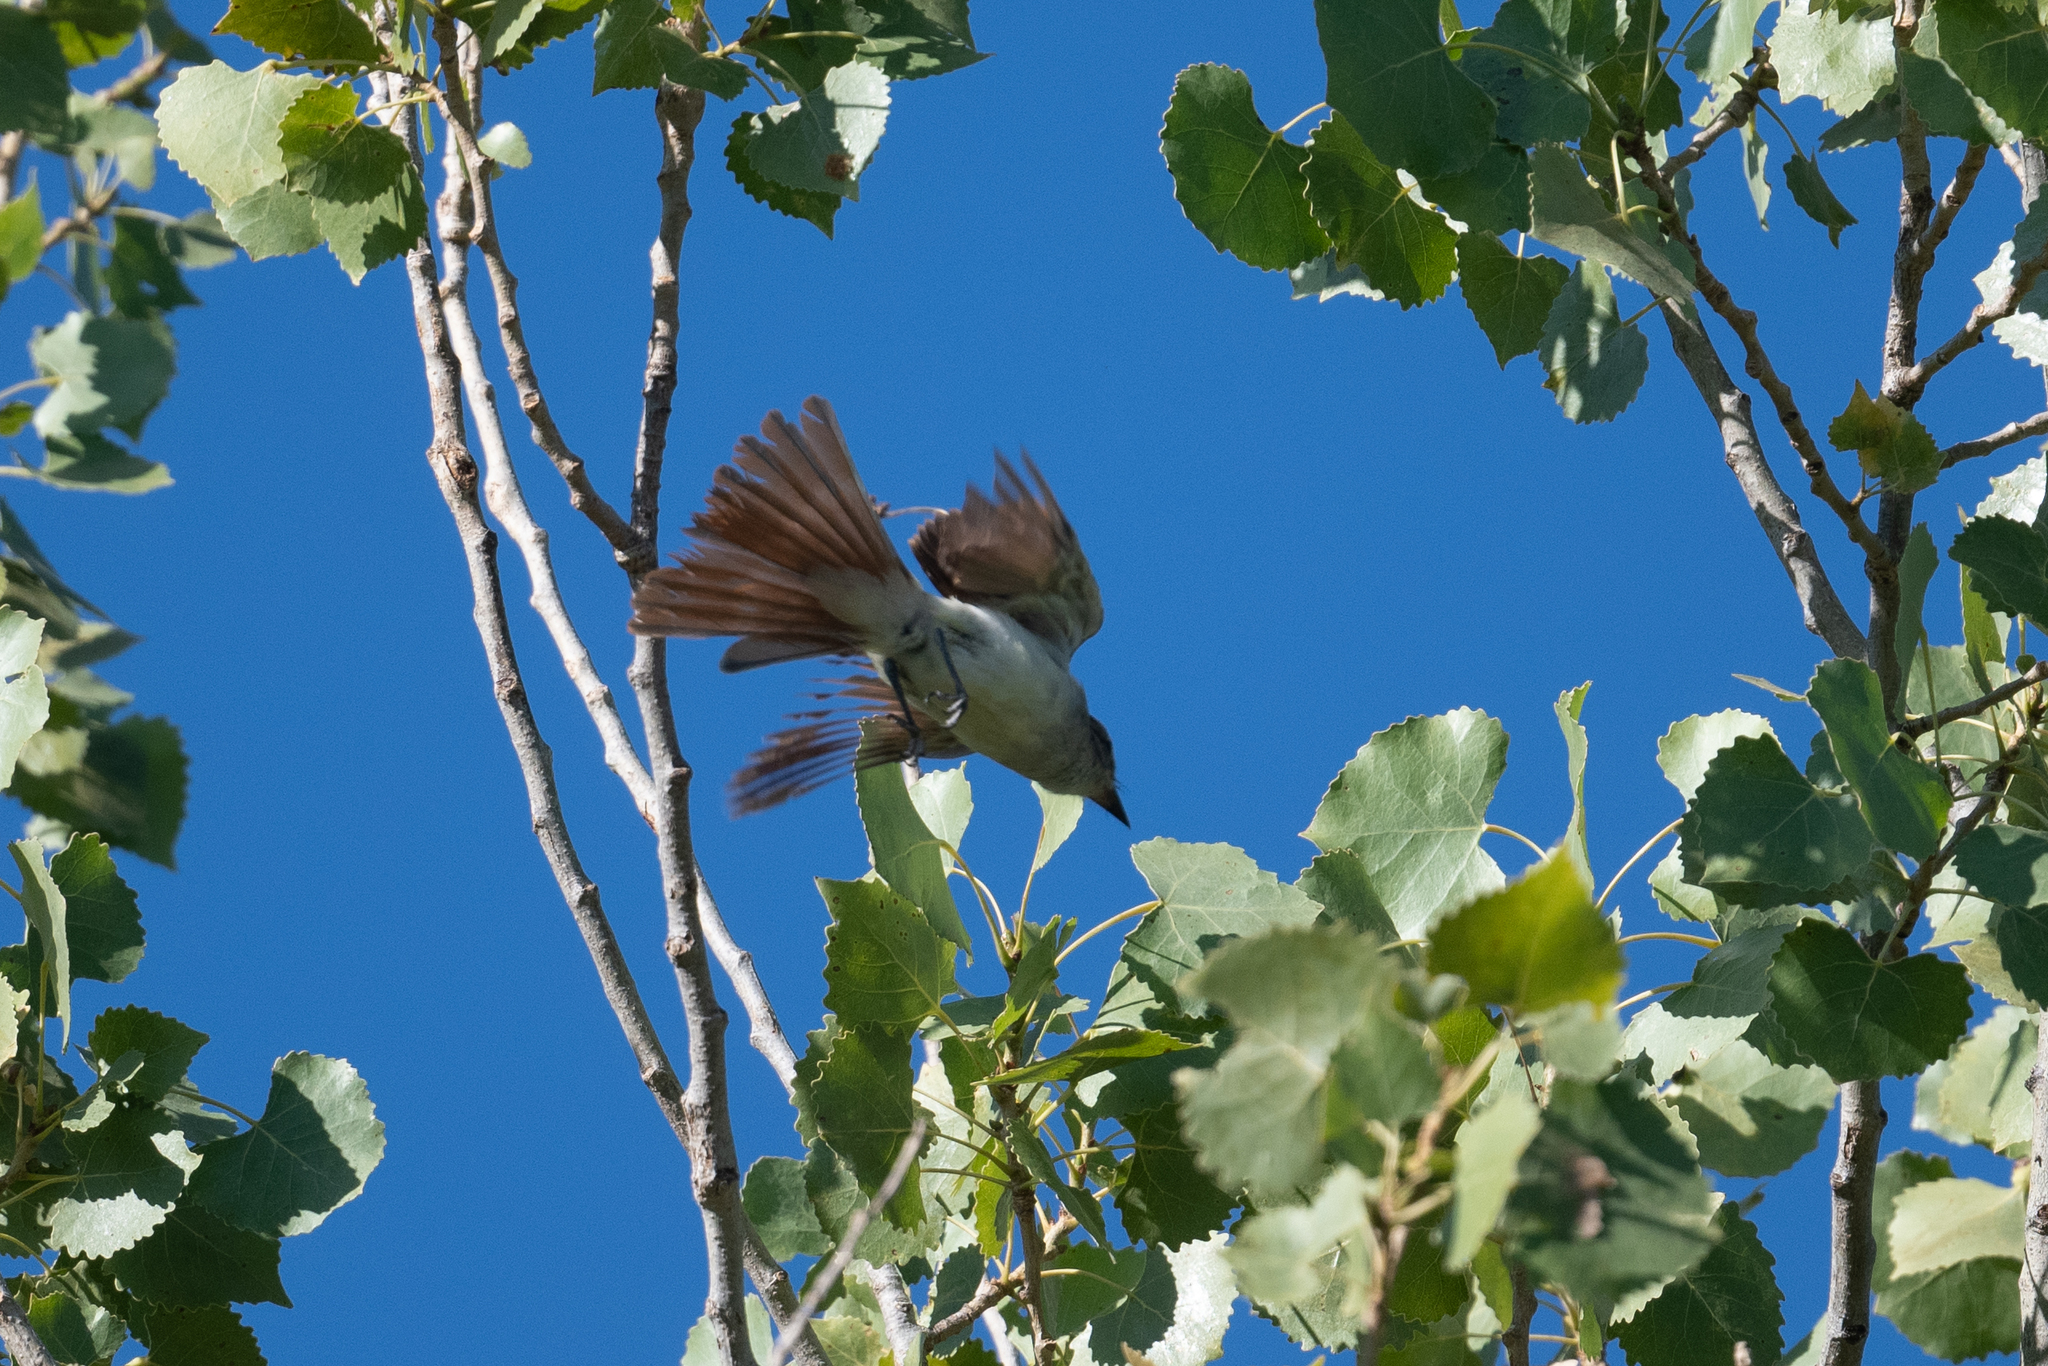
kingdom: Animalia
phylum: Chordata
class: Aves
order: Passeriformes
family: Tyrannidae
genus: Myiarchus
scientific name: Myiarchus cinerascens
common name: Ash-throated flycatcher
